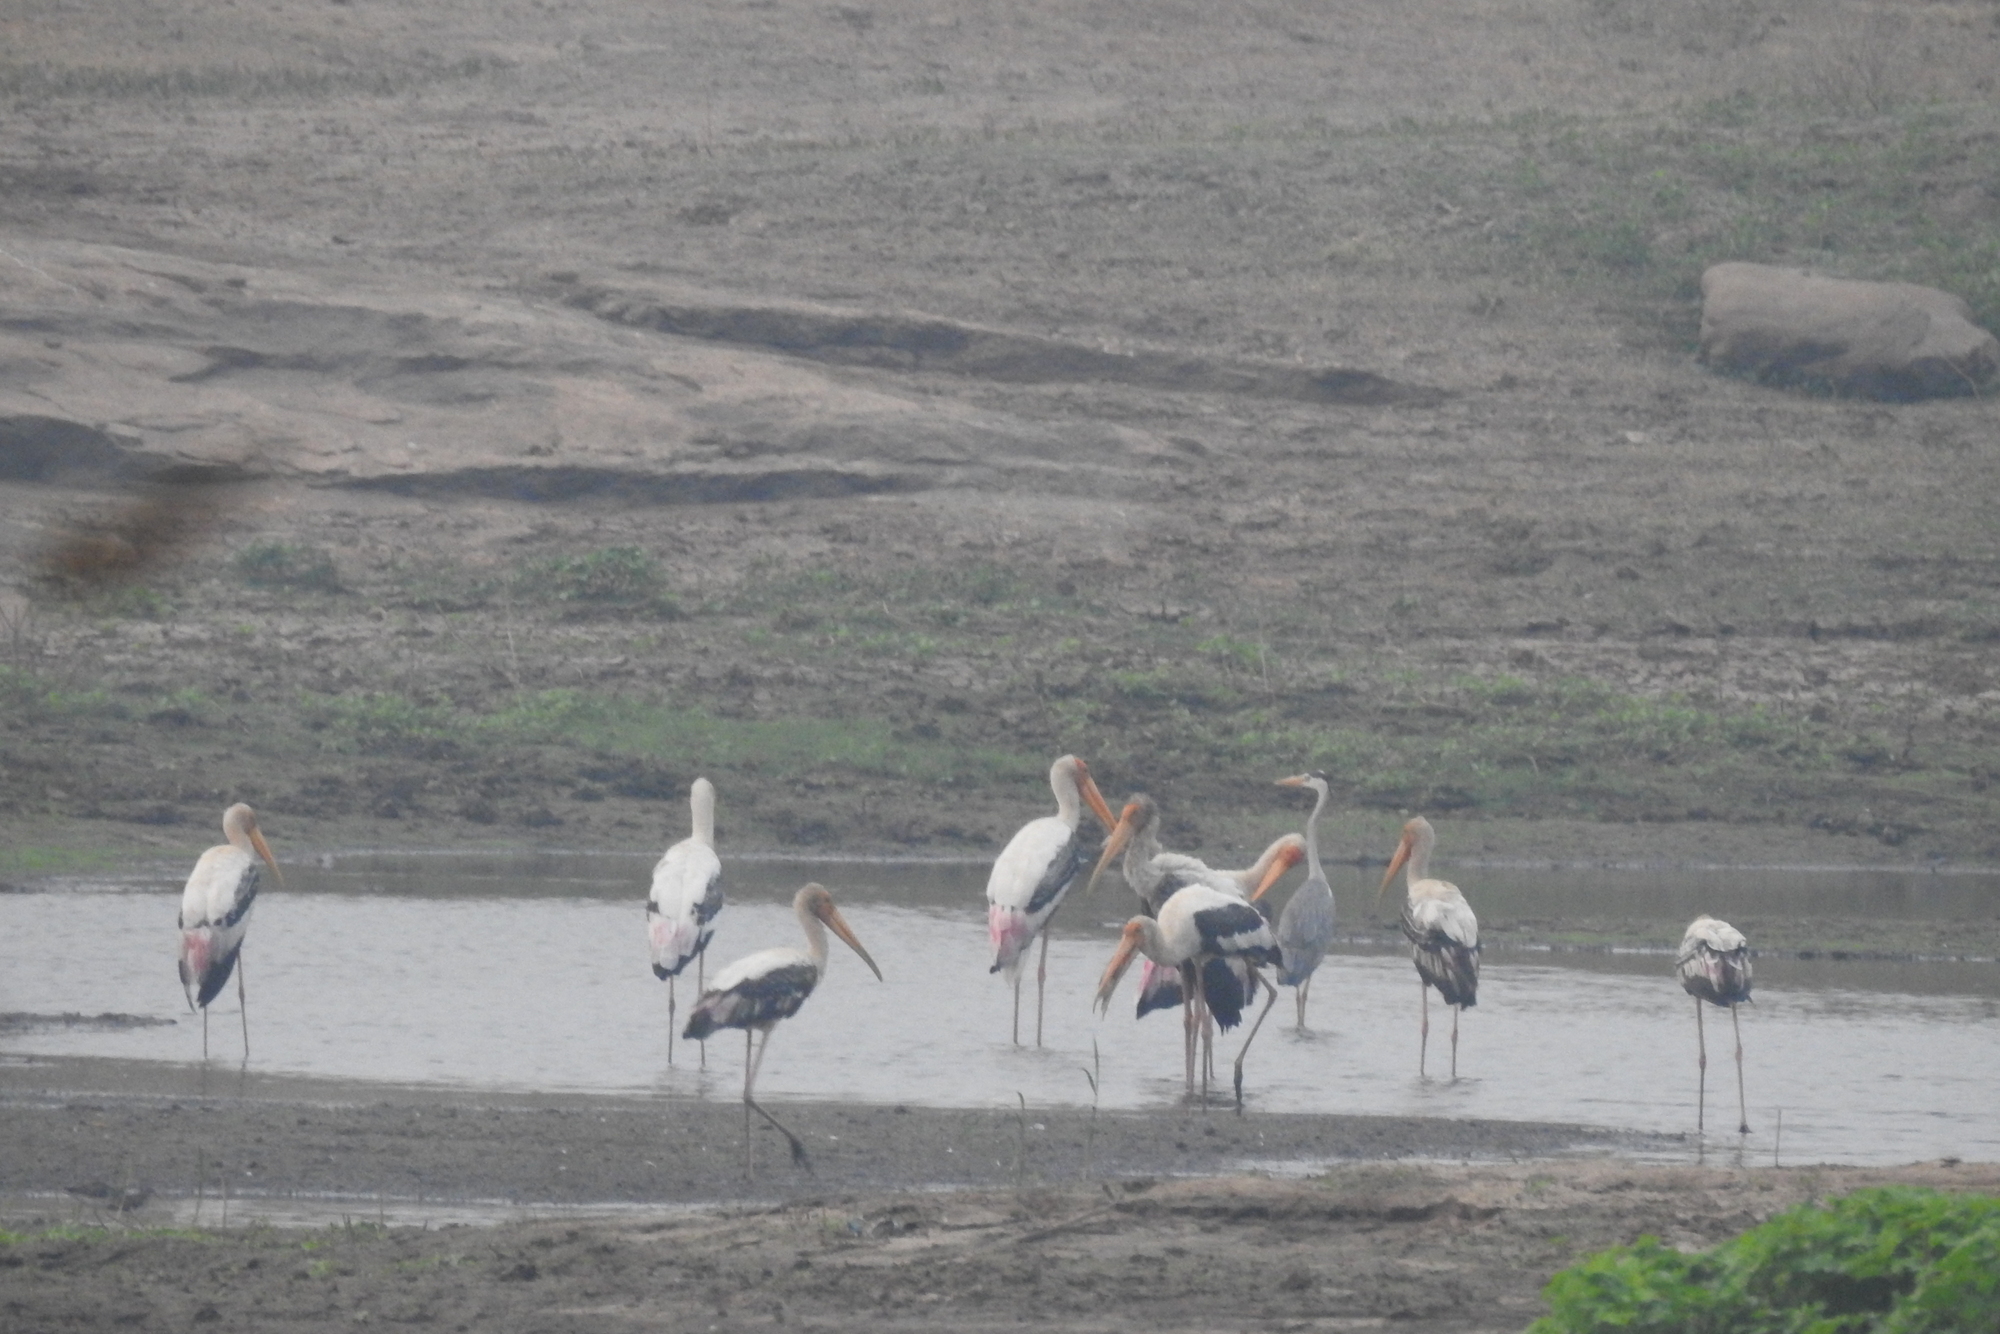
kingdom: Animalia
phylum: Chordata
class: Aves
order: Ciconiiformes
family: Ciconiidae
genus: Mycteria
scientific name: Mycteria leucocephala
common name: Painted stork
